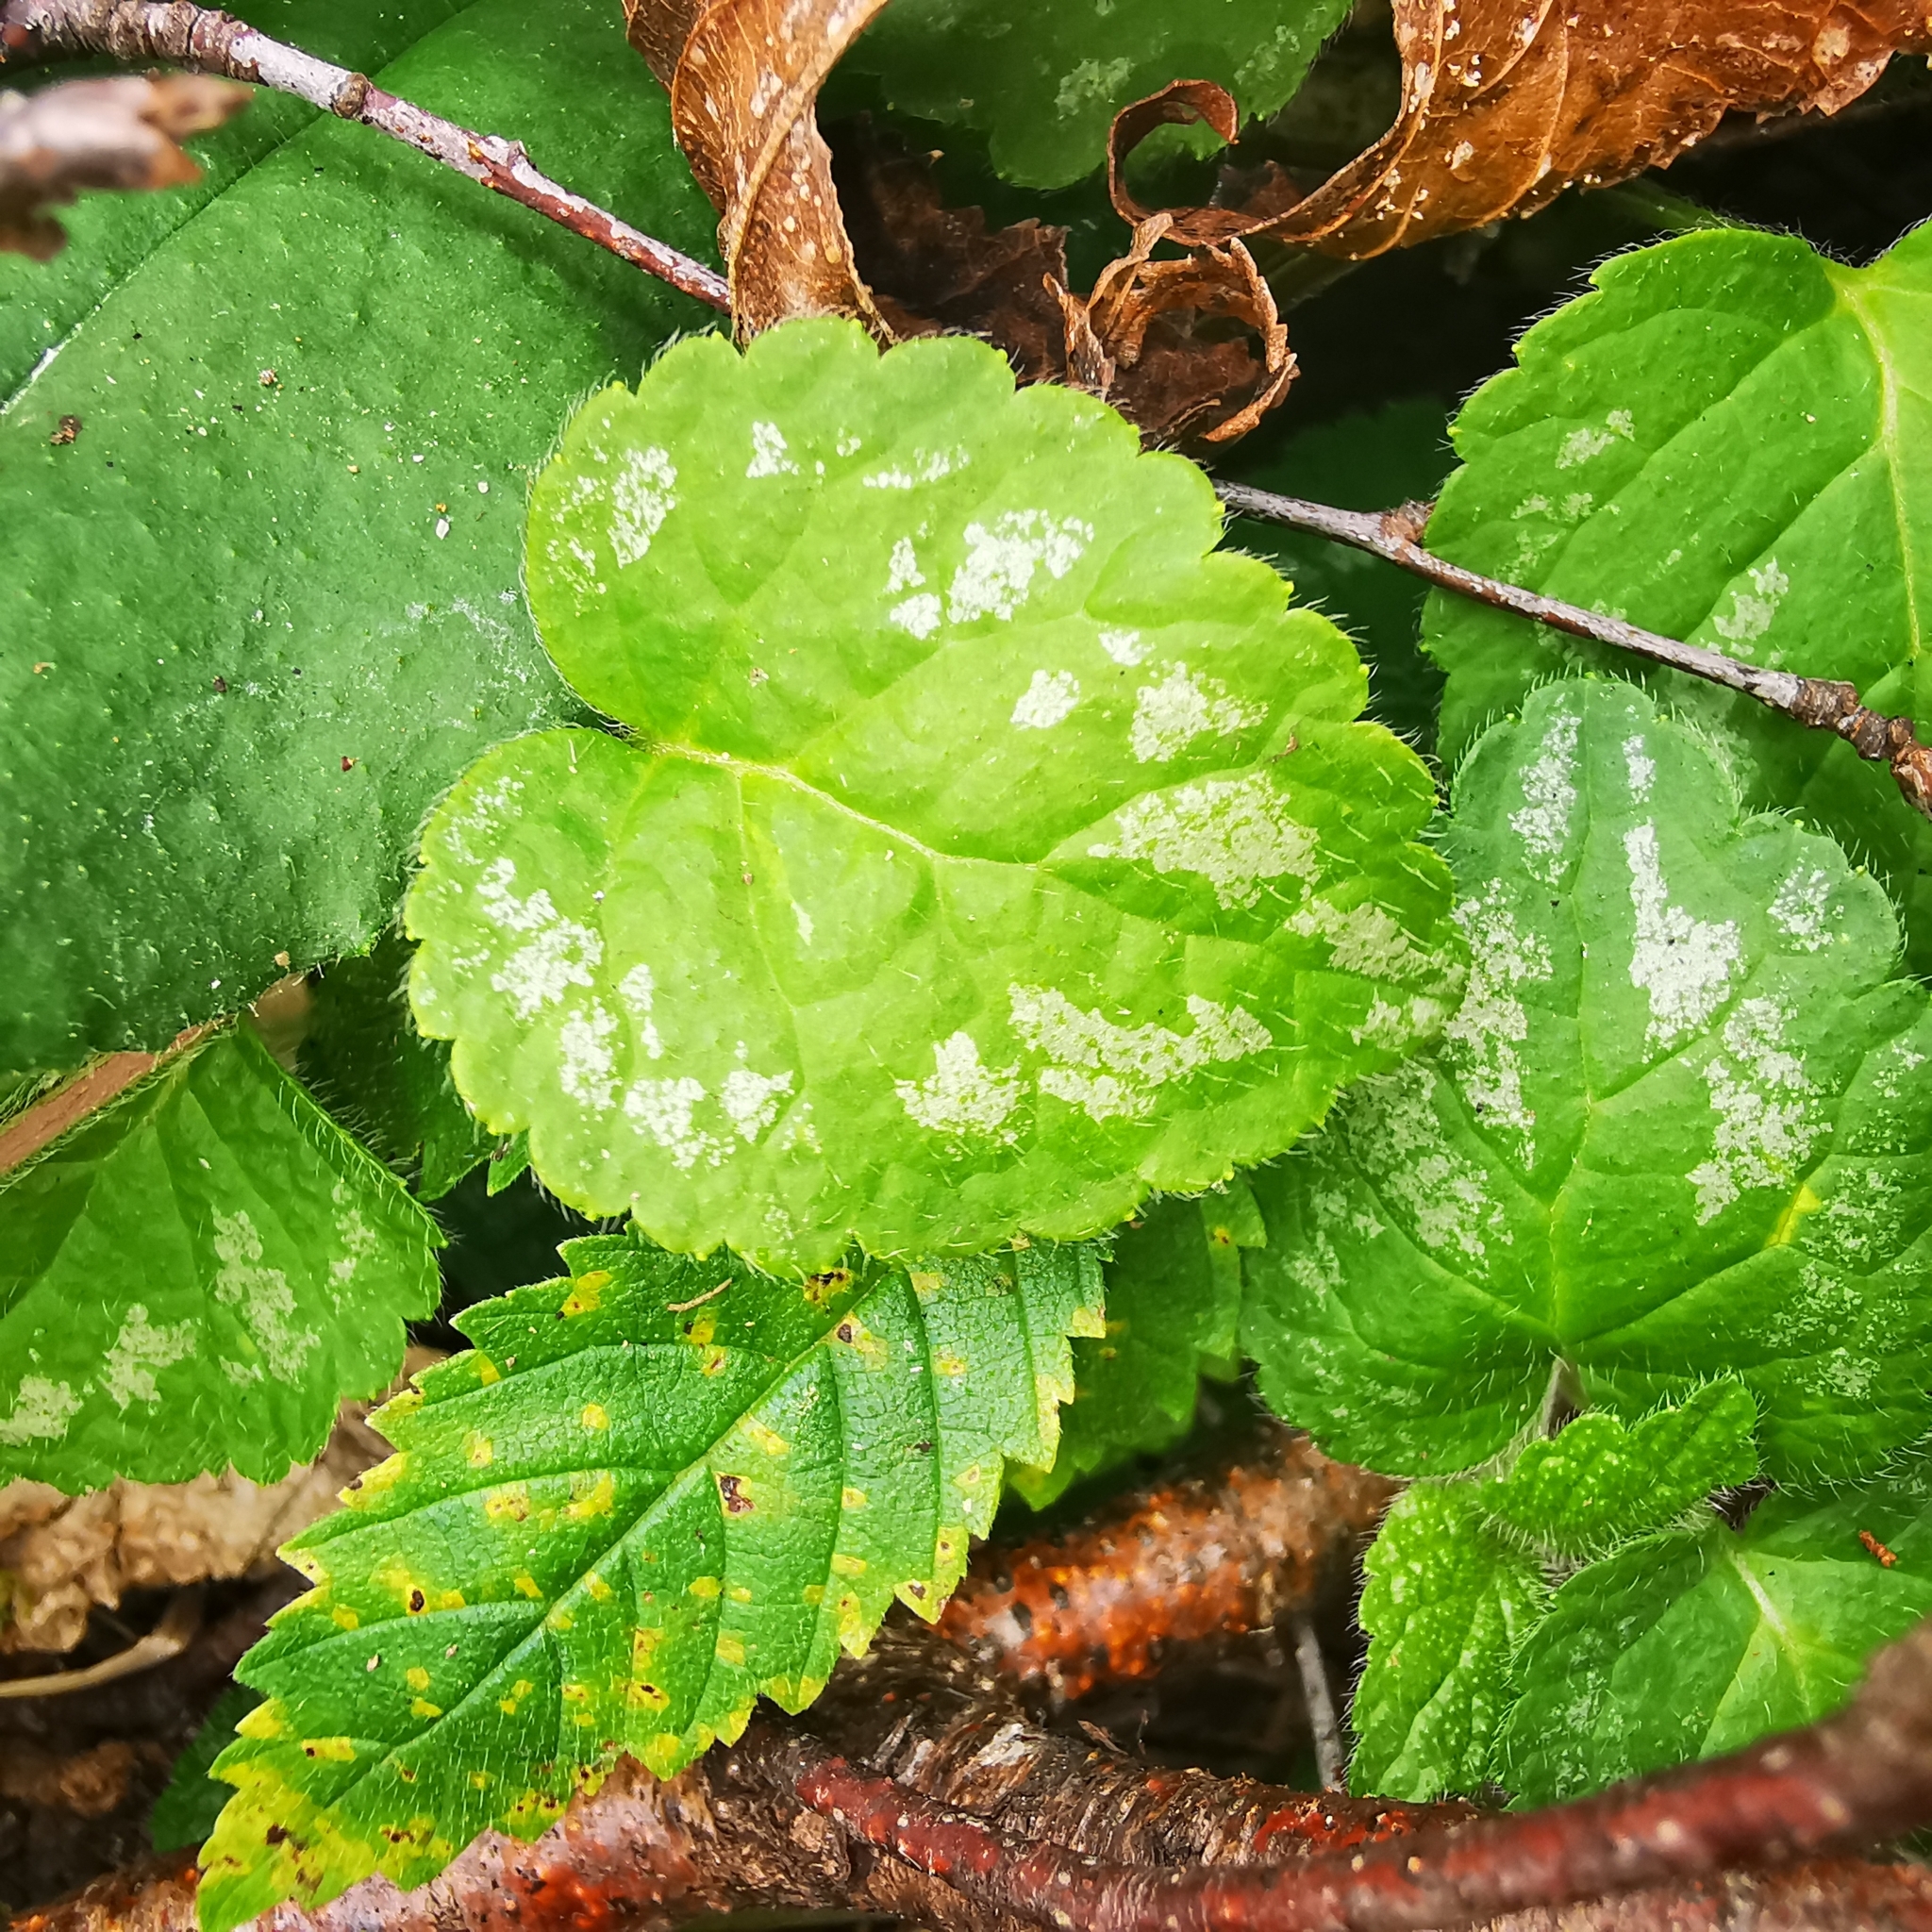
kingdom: Plantae
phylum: Tracheophyta
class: Magnoliopsida
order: Lamiales
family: Lamiaceae
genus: Lamium
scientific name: Lamium galeobdolon
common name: Yellow archangel
